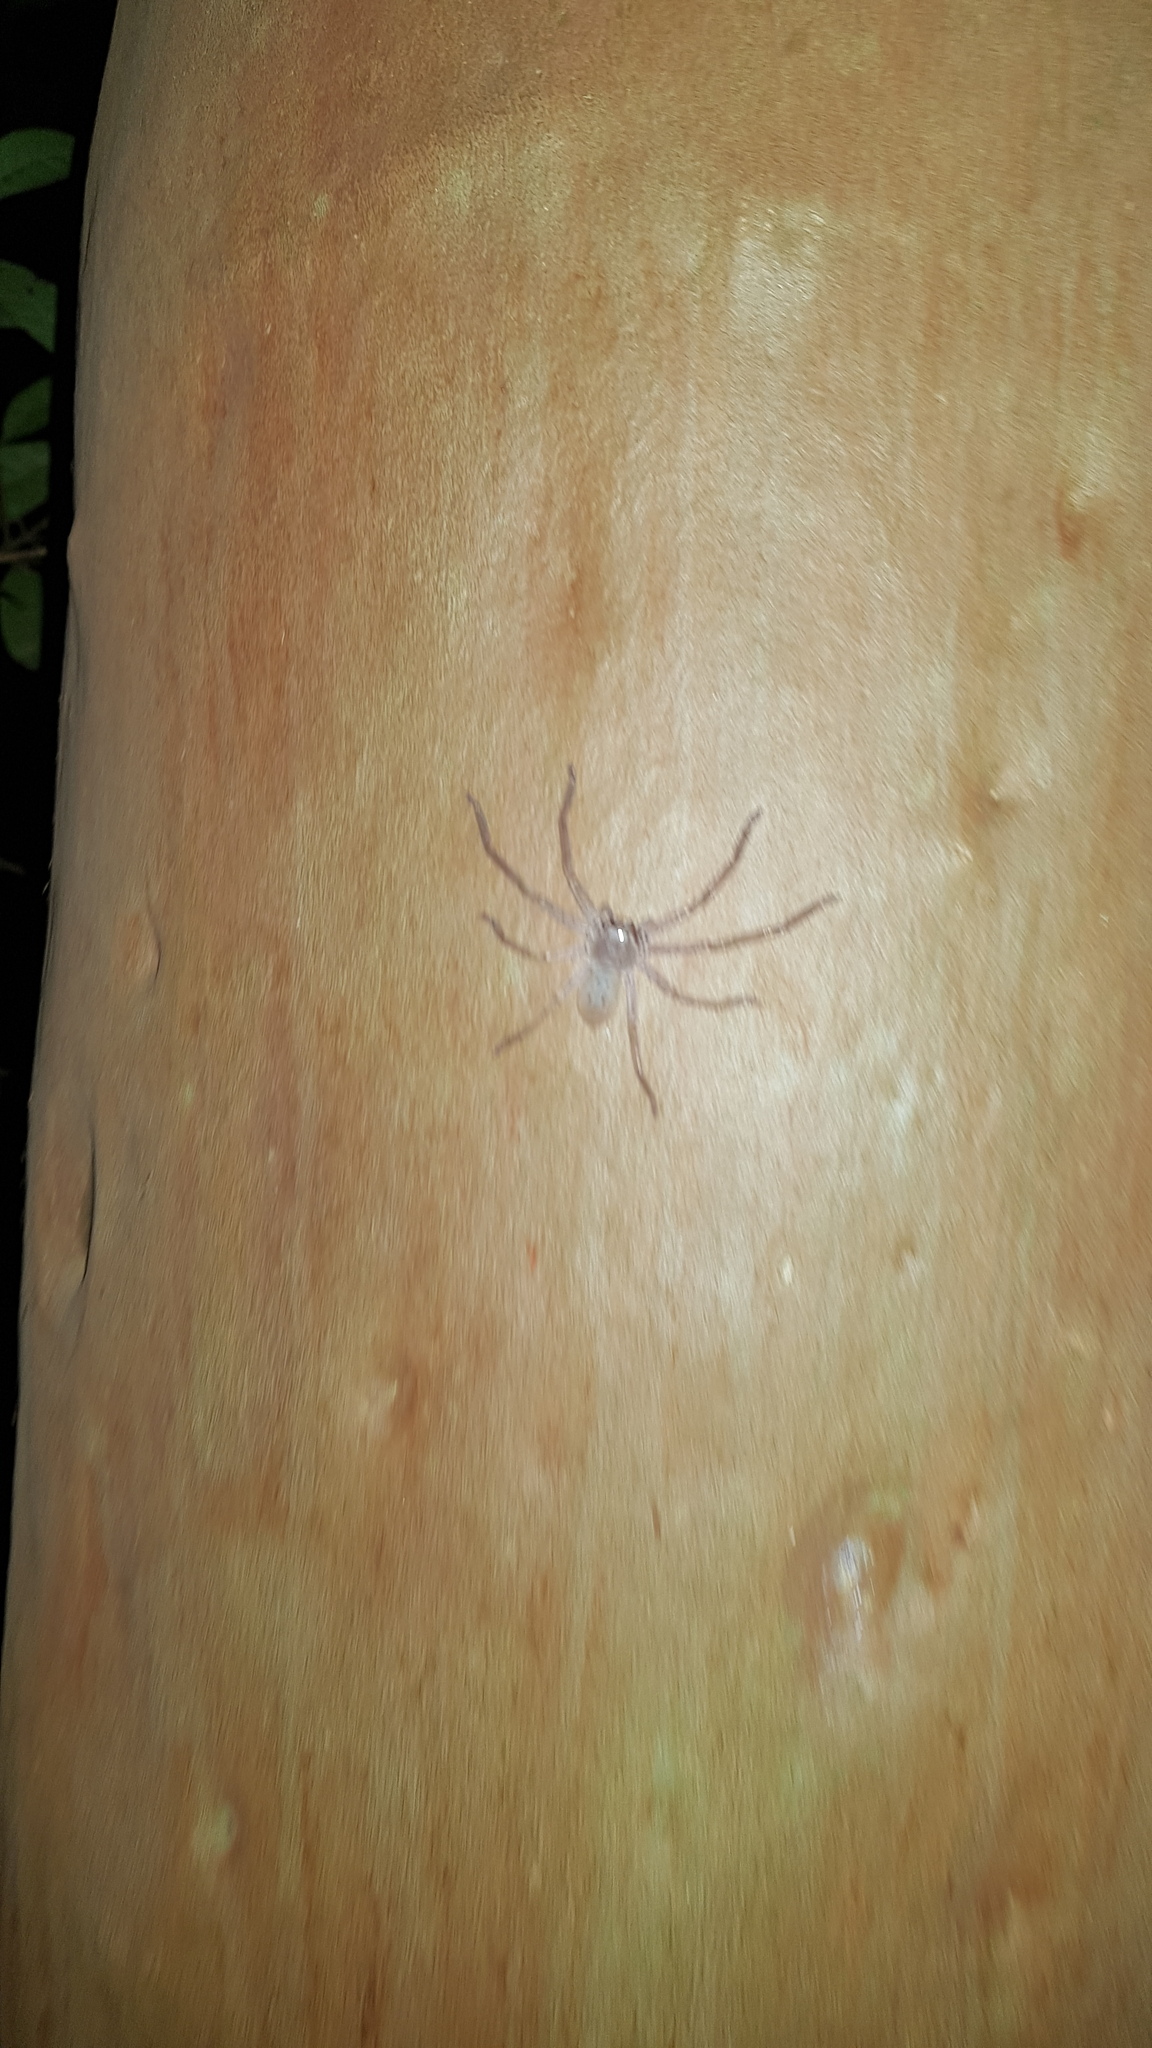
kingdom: Animalia
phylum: Arthropoda
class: Arachnida
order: Araneae
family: Sparassidae
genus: Isopeda
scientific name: Isopeda villosa
